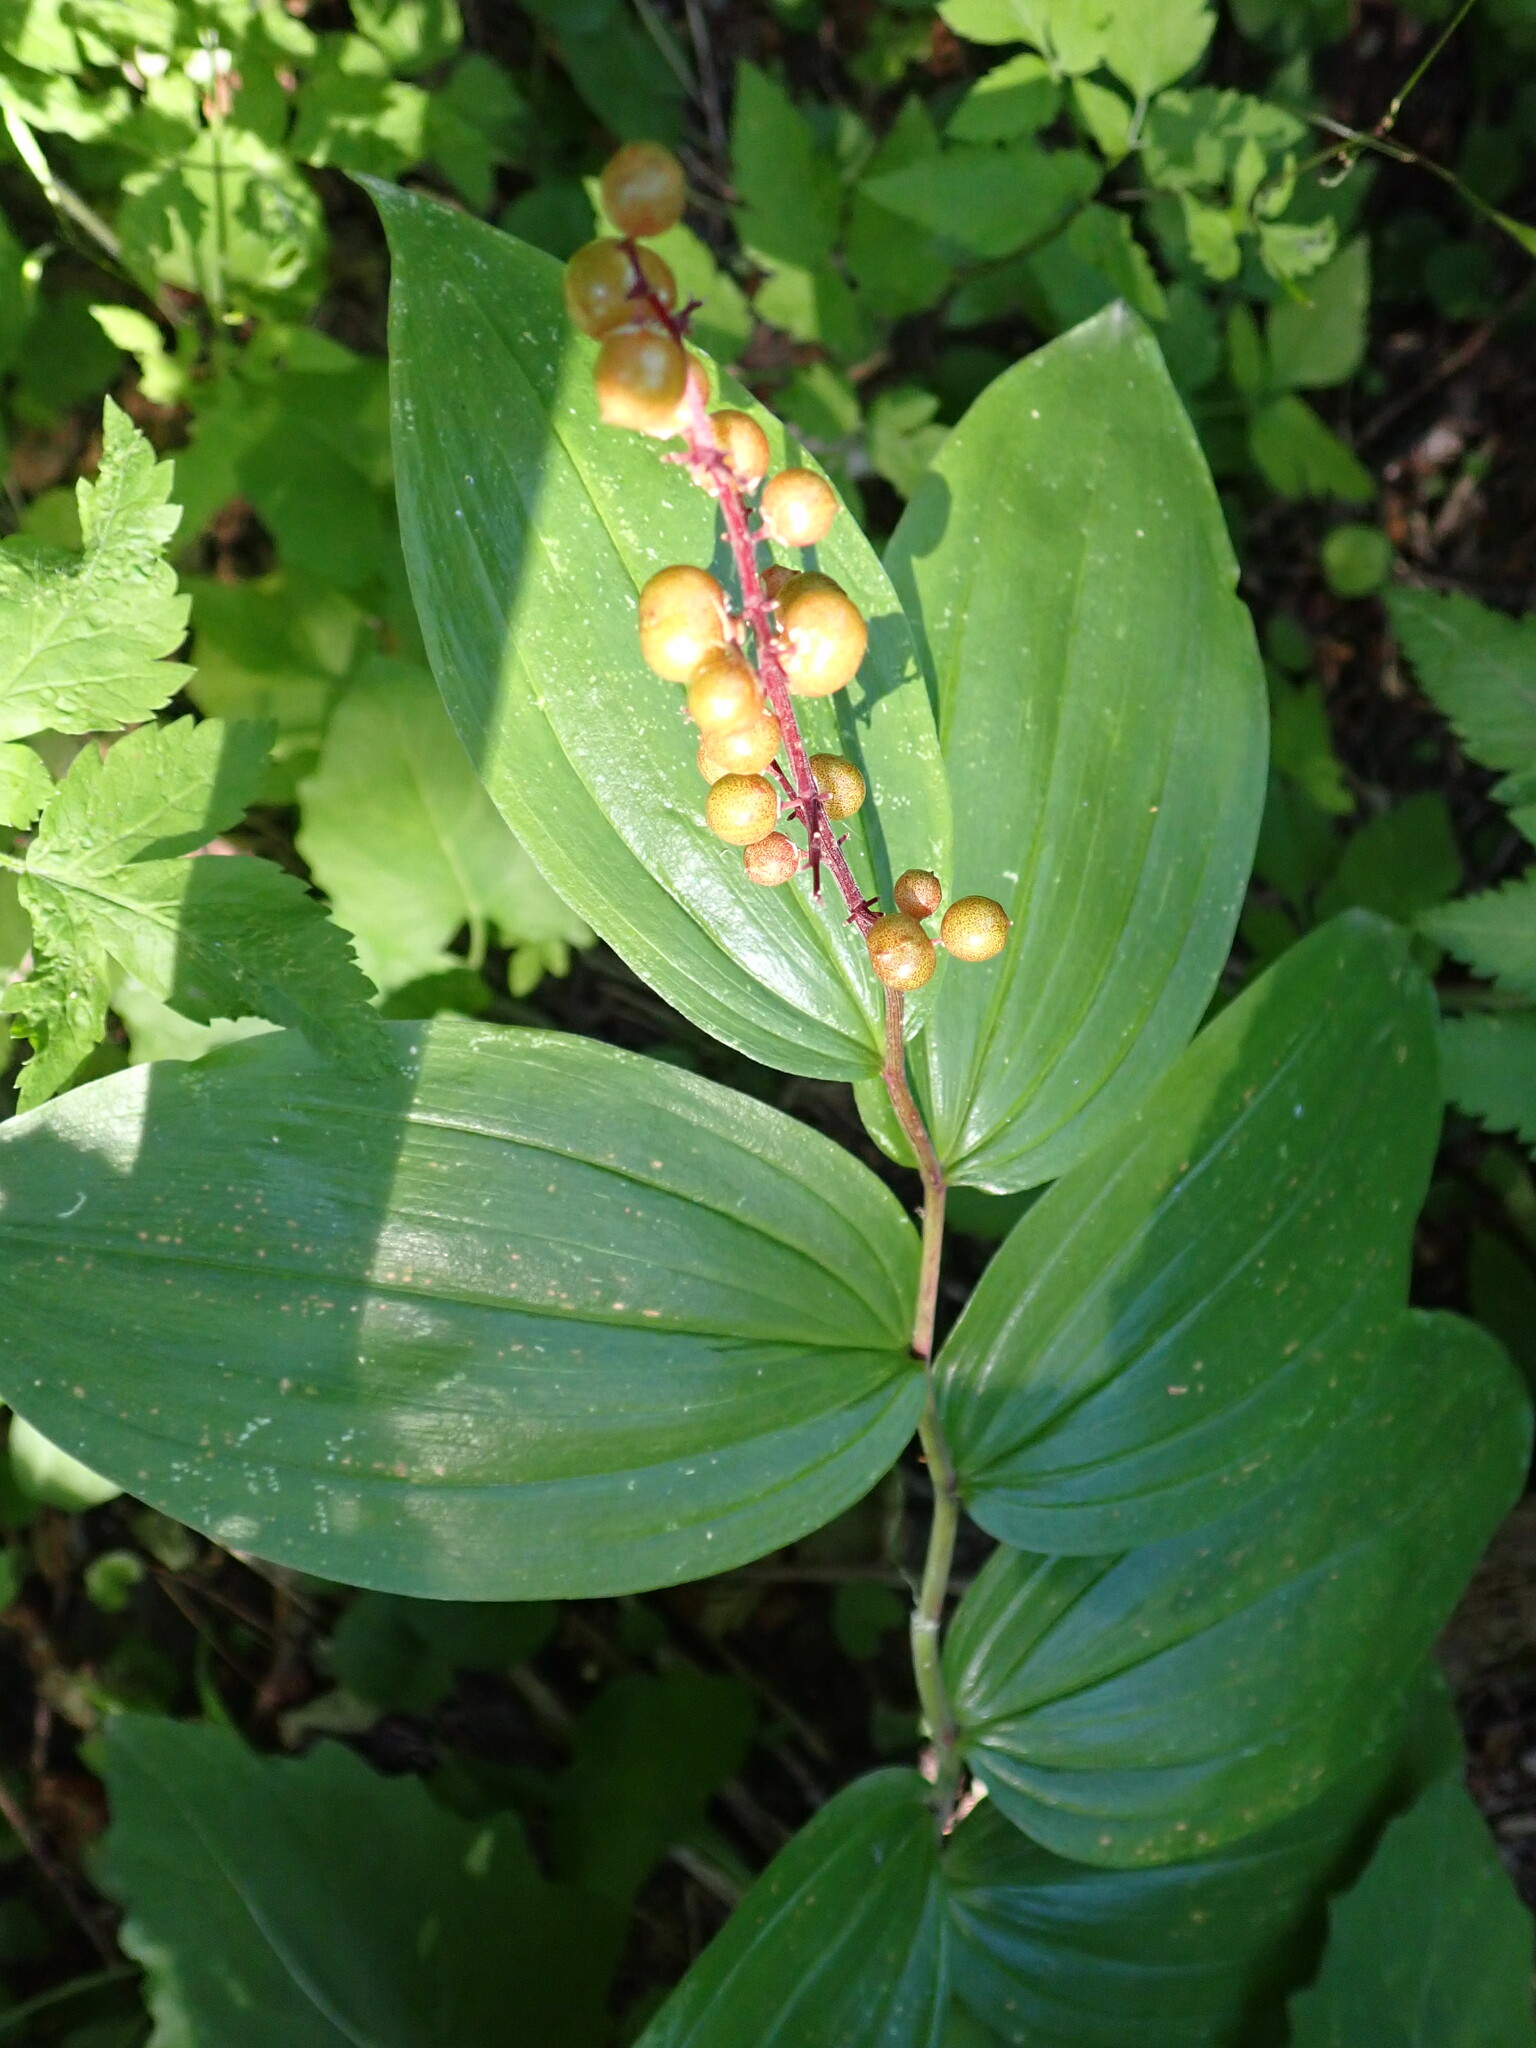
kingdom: Plantae
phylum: Tracheophyta
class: Liliopsida
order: Asparagales
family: Asparagaceae
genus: Maianthemum
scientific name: Maianthemum racemosum
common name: False spikenard
